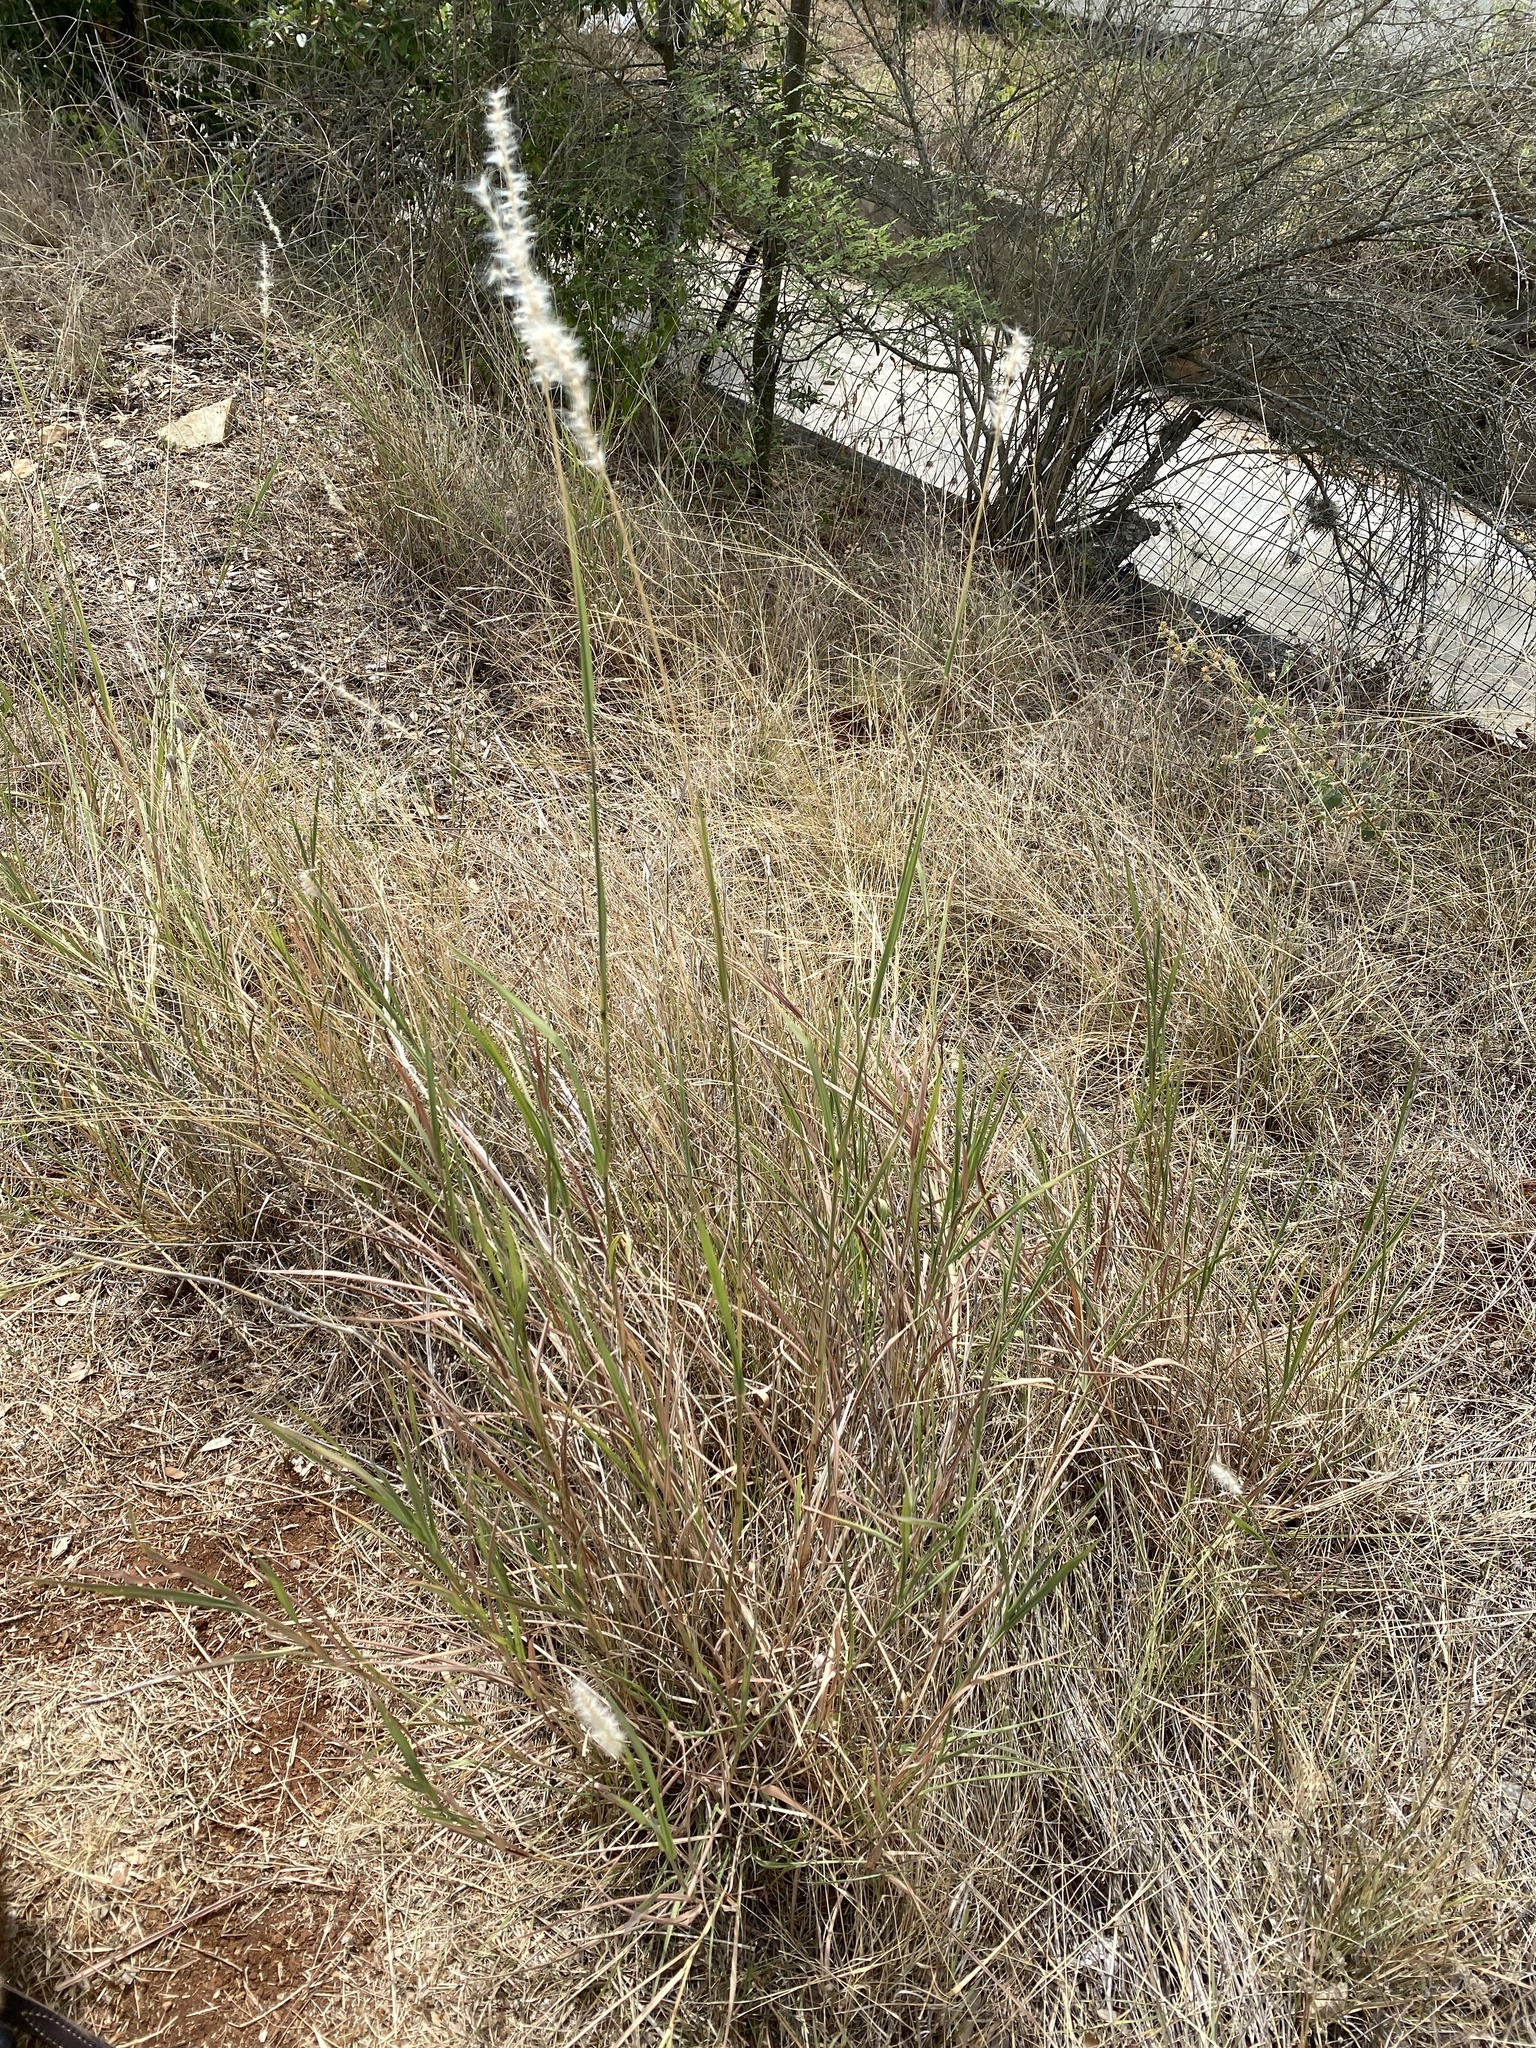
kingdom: Plantae
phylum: Tracheophyta
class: Liliopsida
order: Poales
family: Poaceae
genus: Bothriochloa
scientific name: Bothriochloa torreyana
